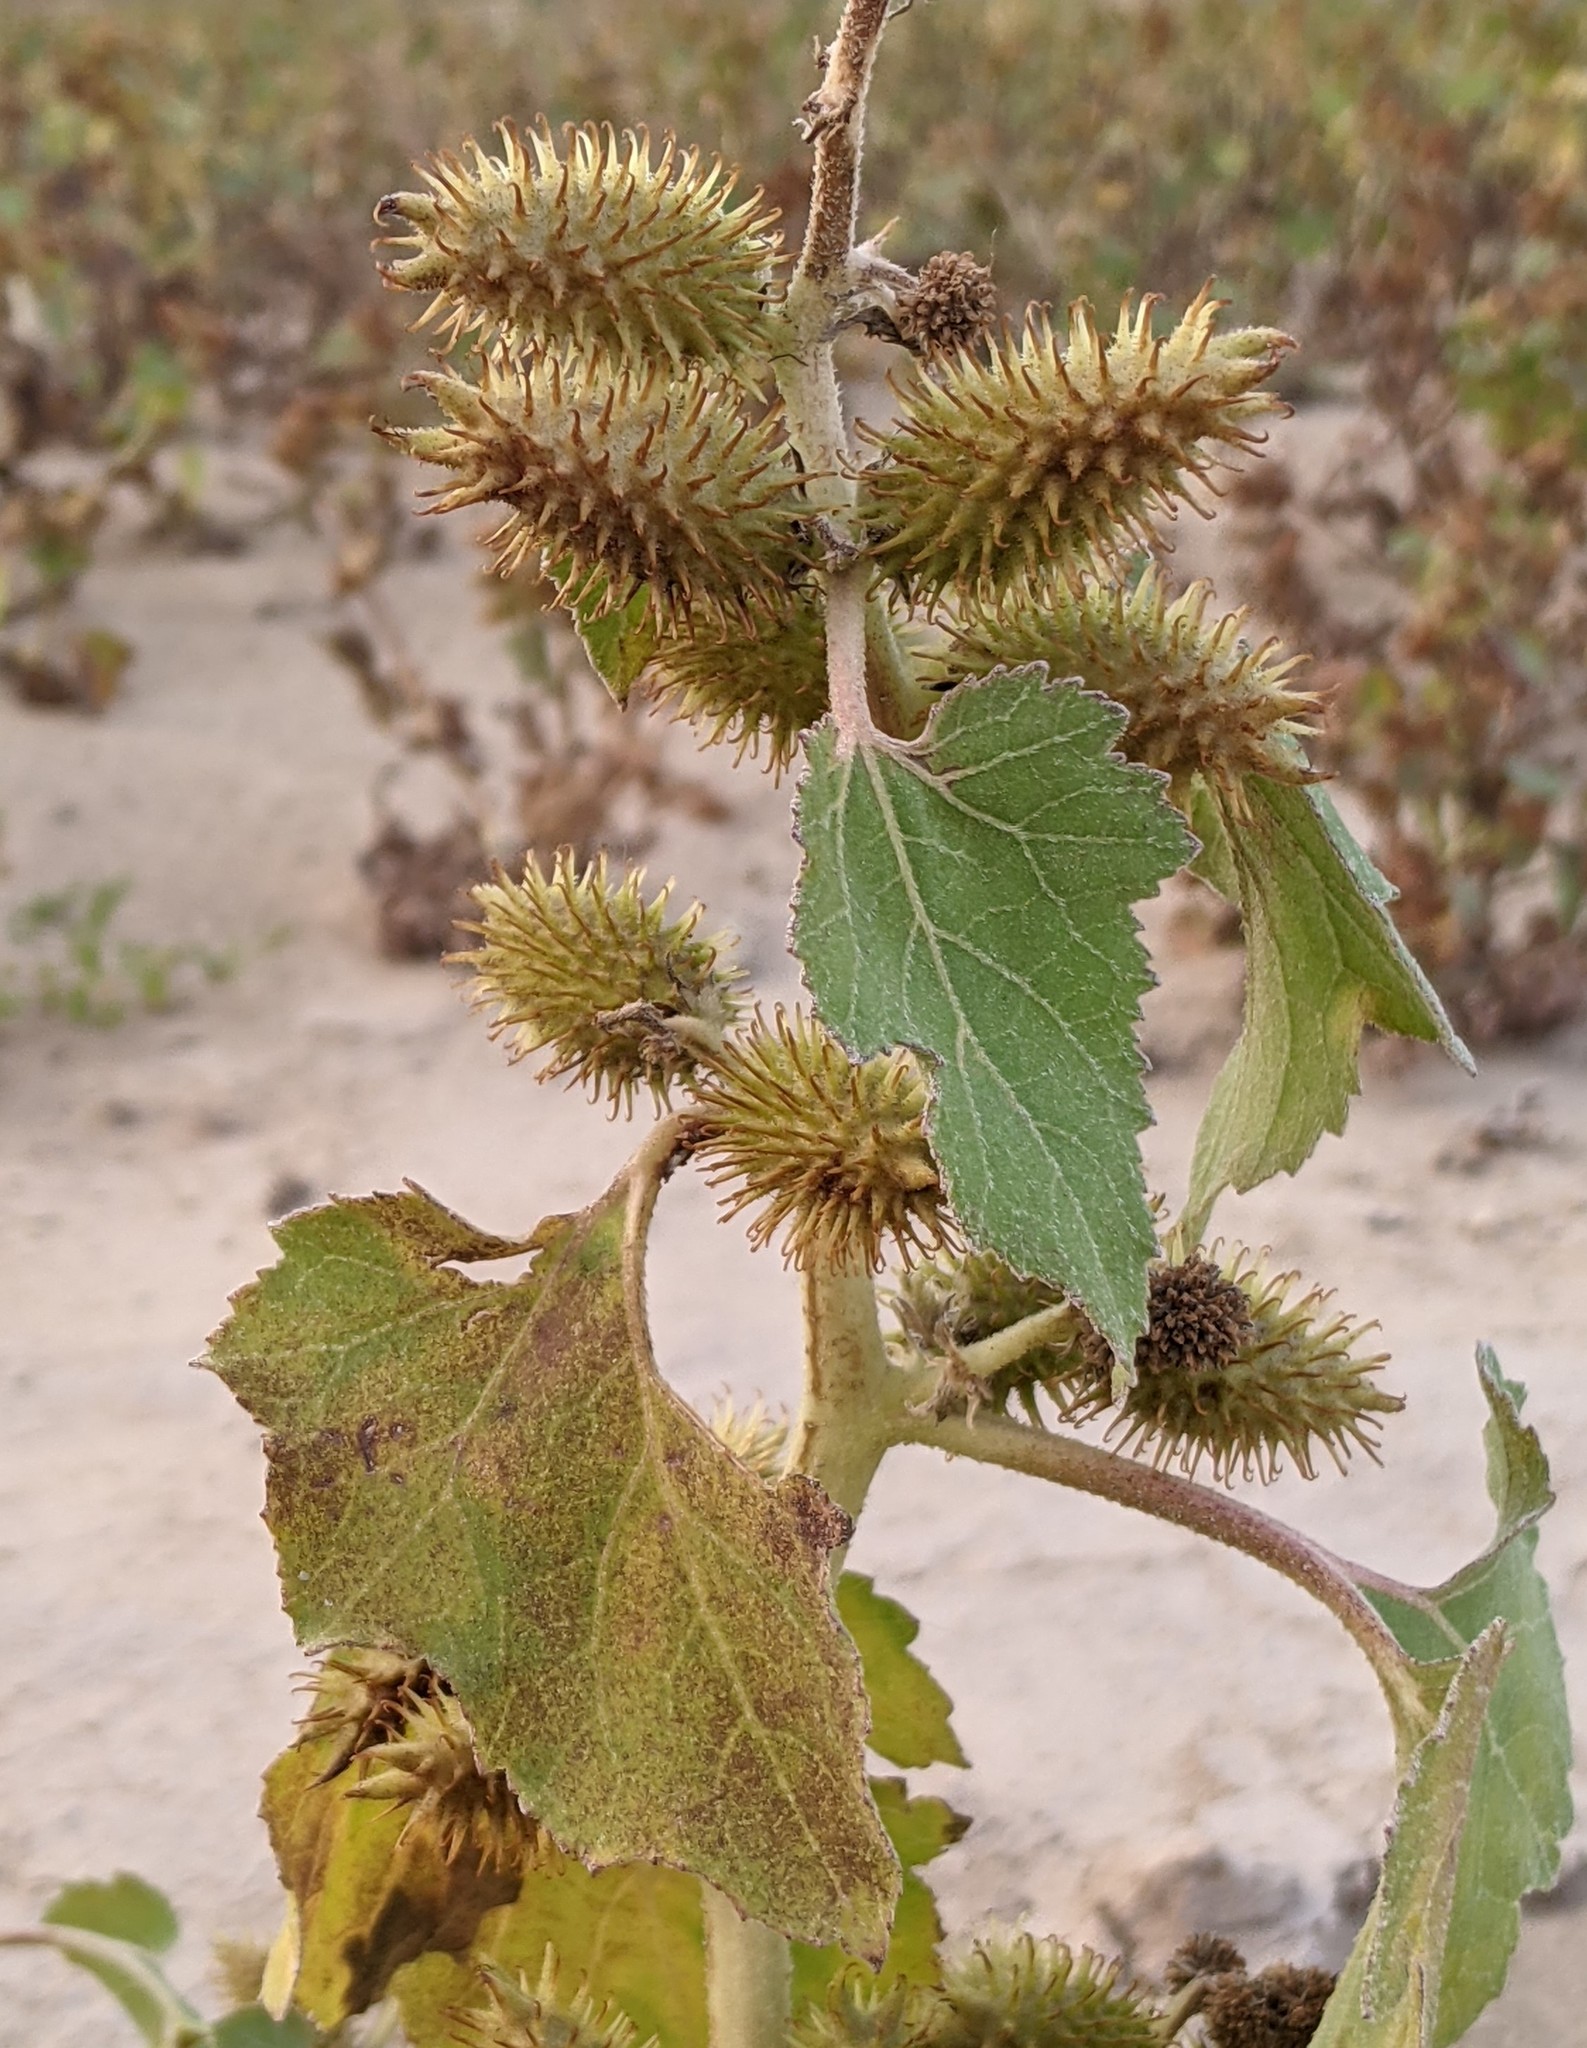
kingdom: Plantae
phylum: Tracheophyta
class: Magnoliopsida
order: Asterales
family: Asteraceae
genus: Xanthium
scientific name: Xanthium strumarium
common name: Rough cocklebur
